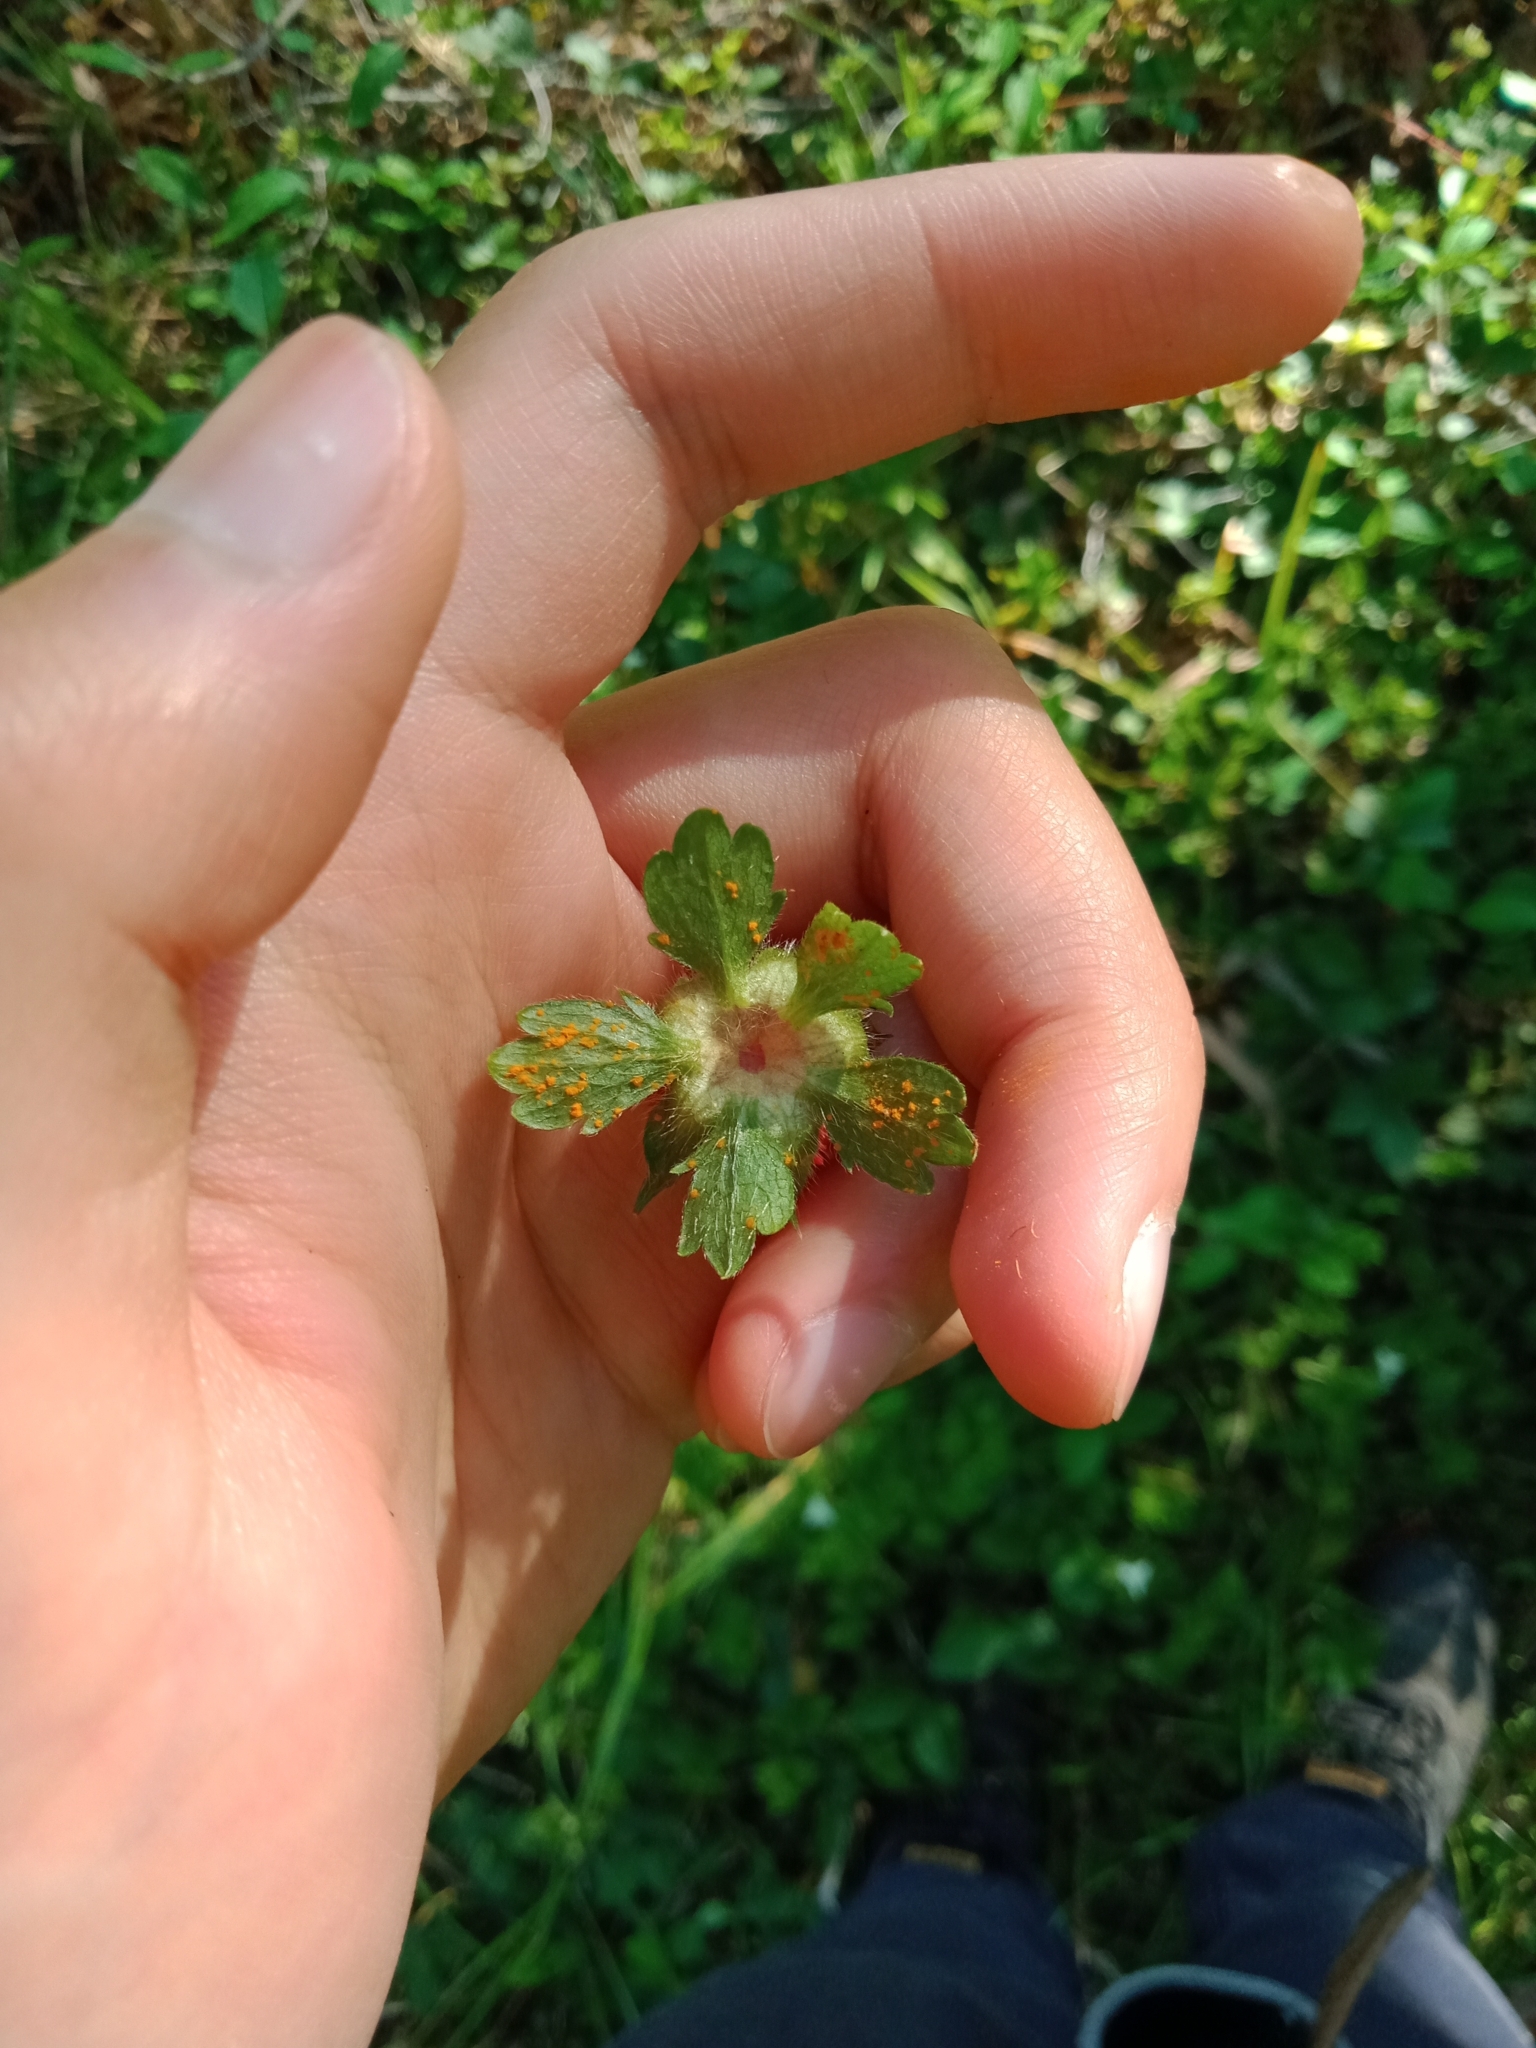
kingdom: Plantae
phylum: Tracheophyta
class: Magnoliopsida
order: Rosales
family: Rosaceae
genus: Potentilla
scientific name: Potentilla indica
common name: Yellow-flowered strawberry
